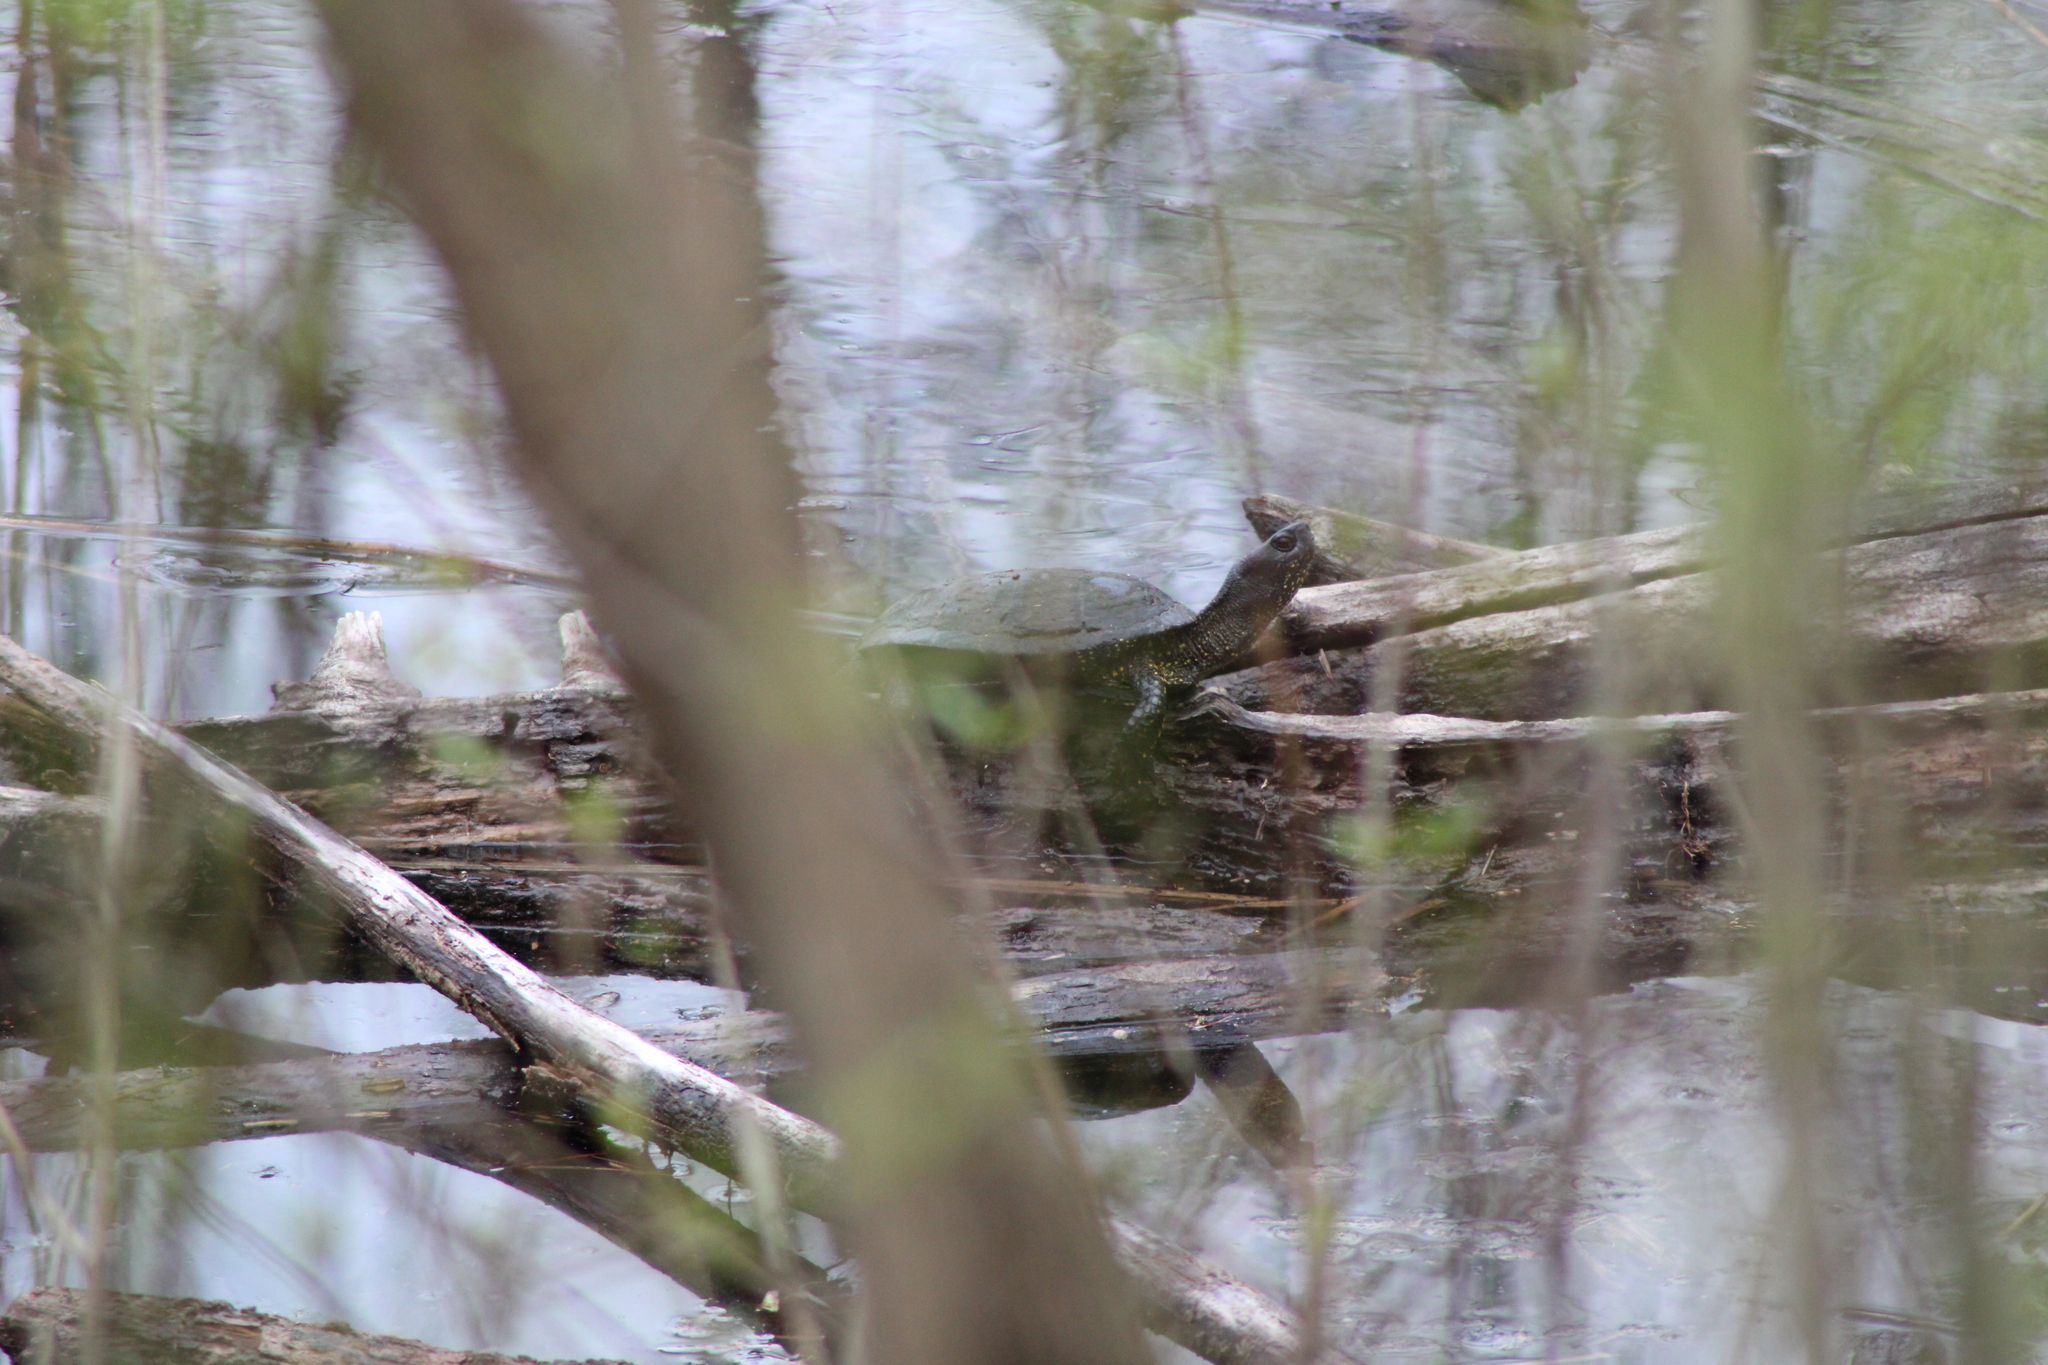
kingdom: Animalia
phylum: Chordata
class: Testudines
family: Emydidae
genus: Emys
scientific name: Emys orbicularis
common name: European pond turtle
